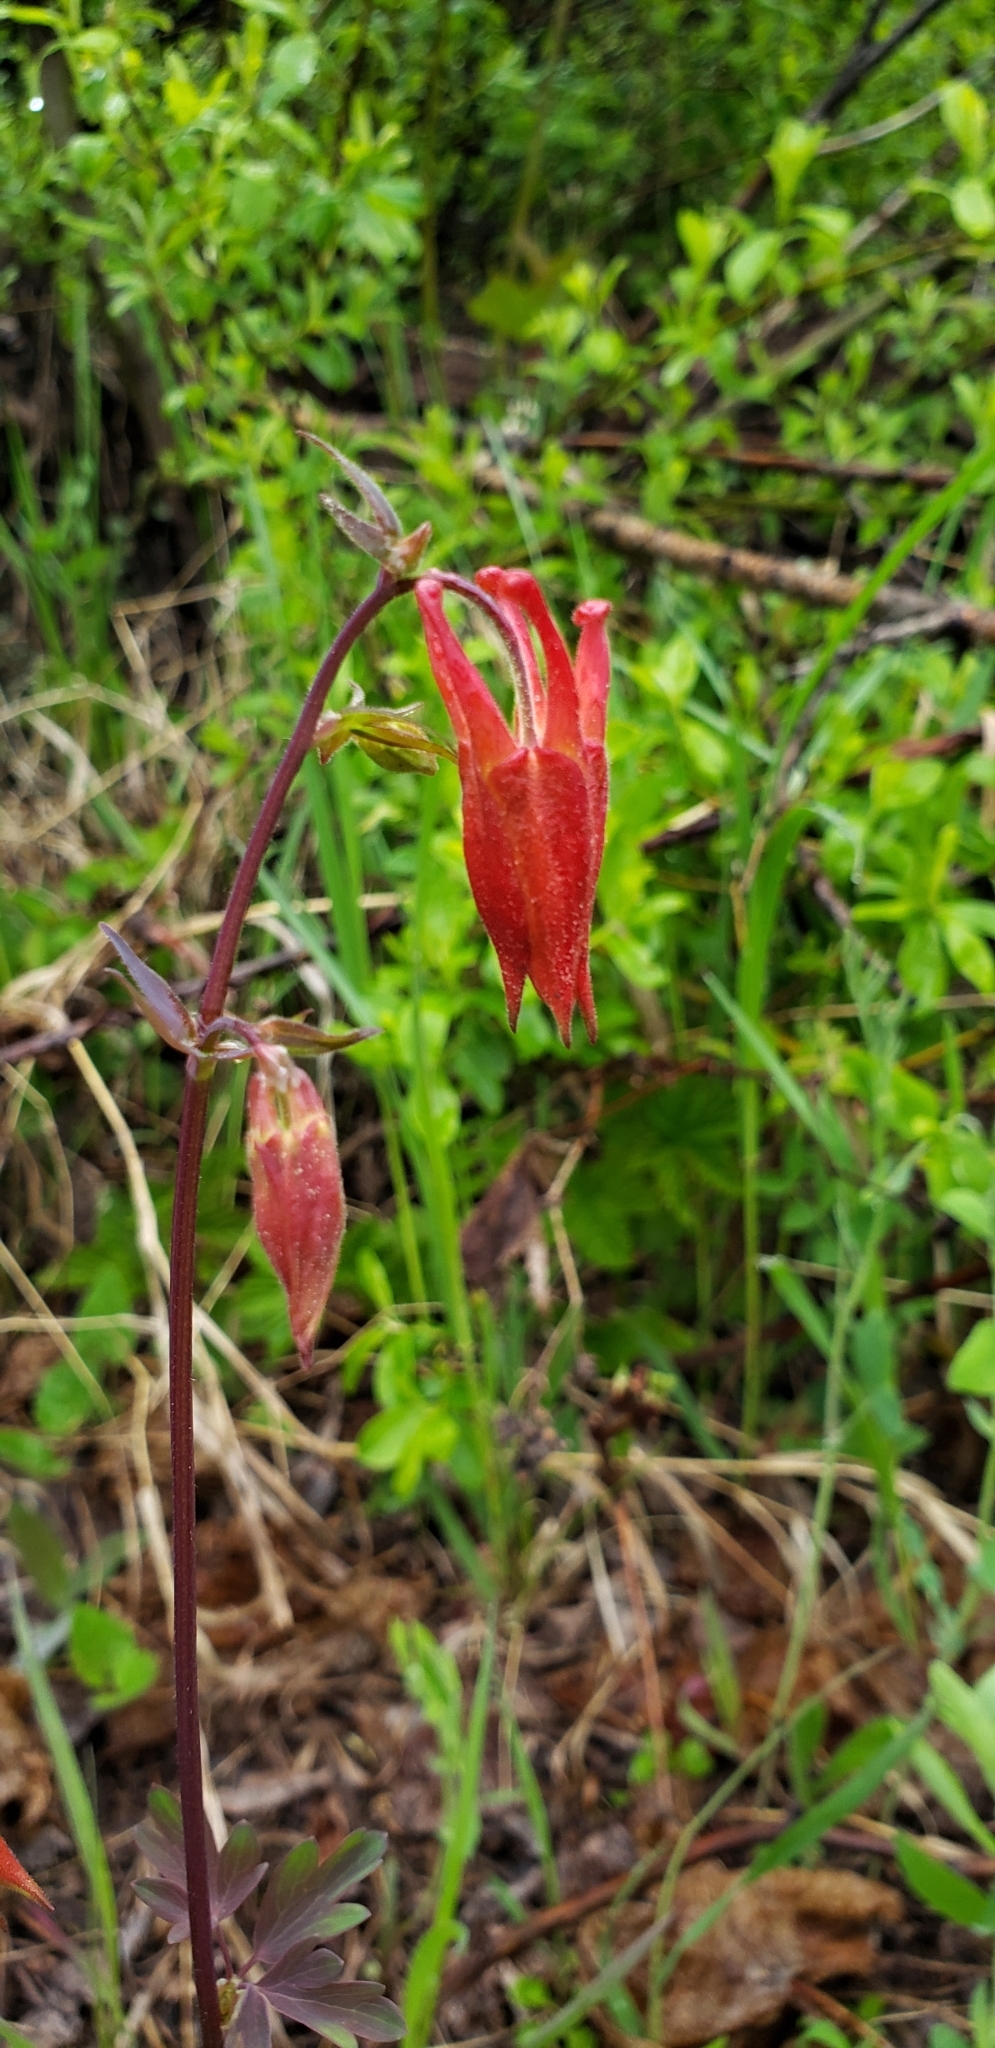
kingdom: Plantae
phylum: Tracheophyta
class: Magnoliopsida
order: Ranunculales
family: Ranunculaceae
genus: Aquilegia
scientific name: Aquilegia formosa
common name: Sitka columbine
